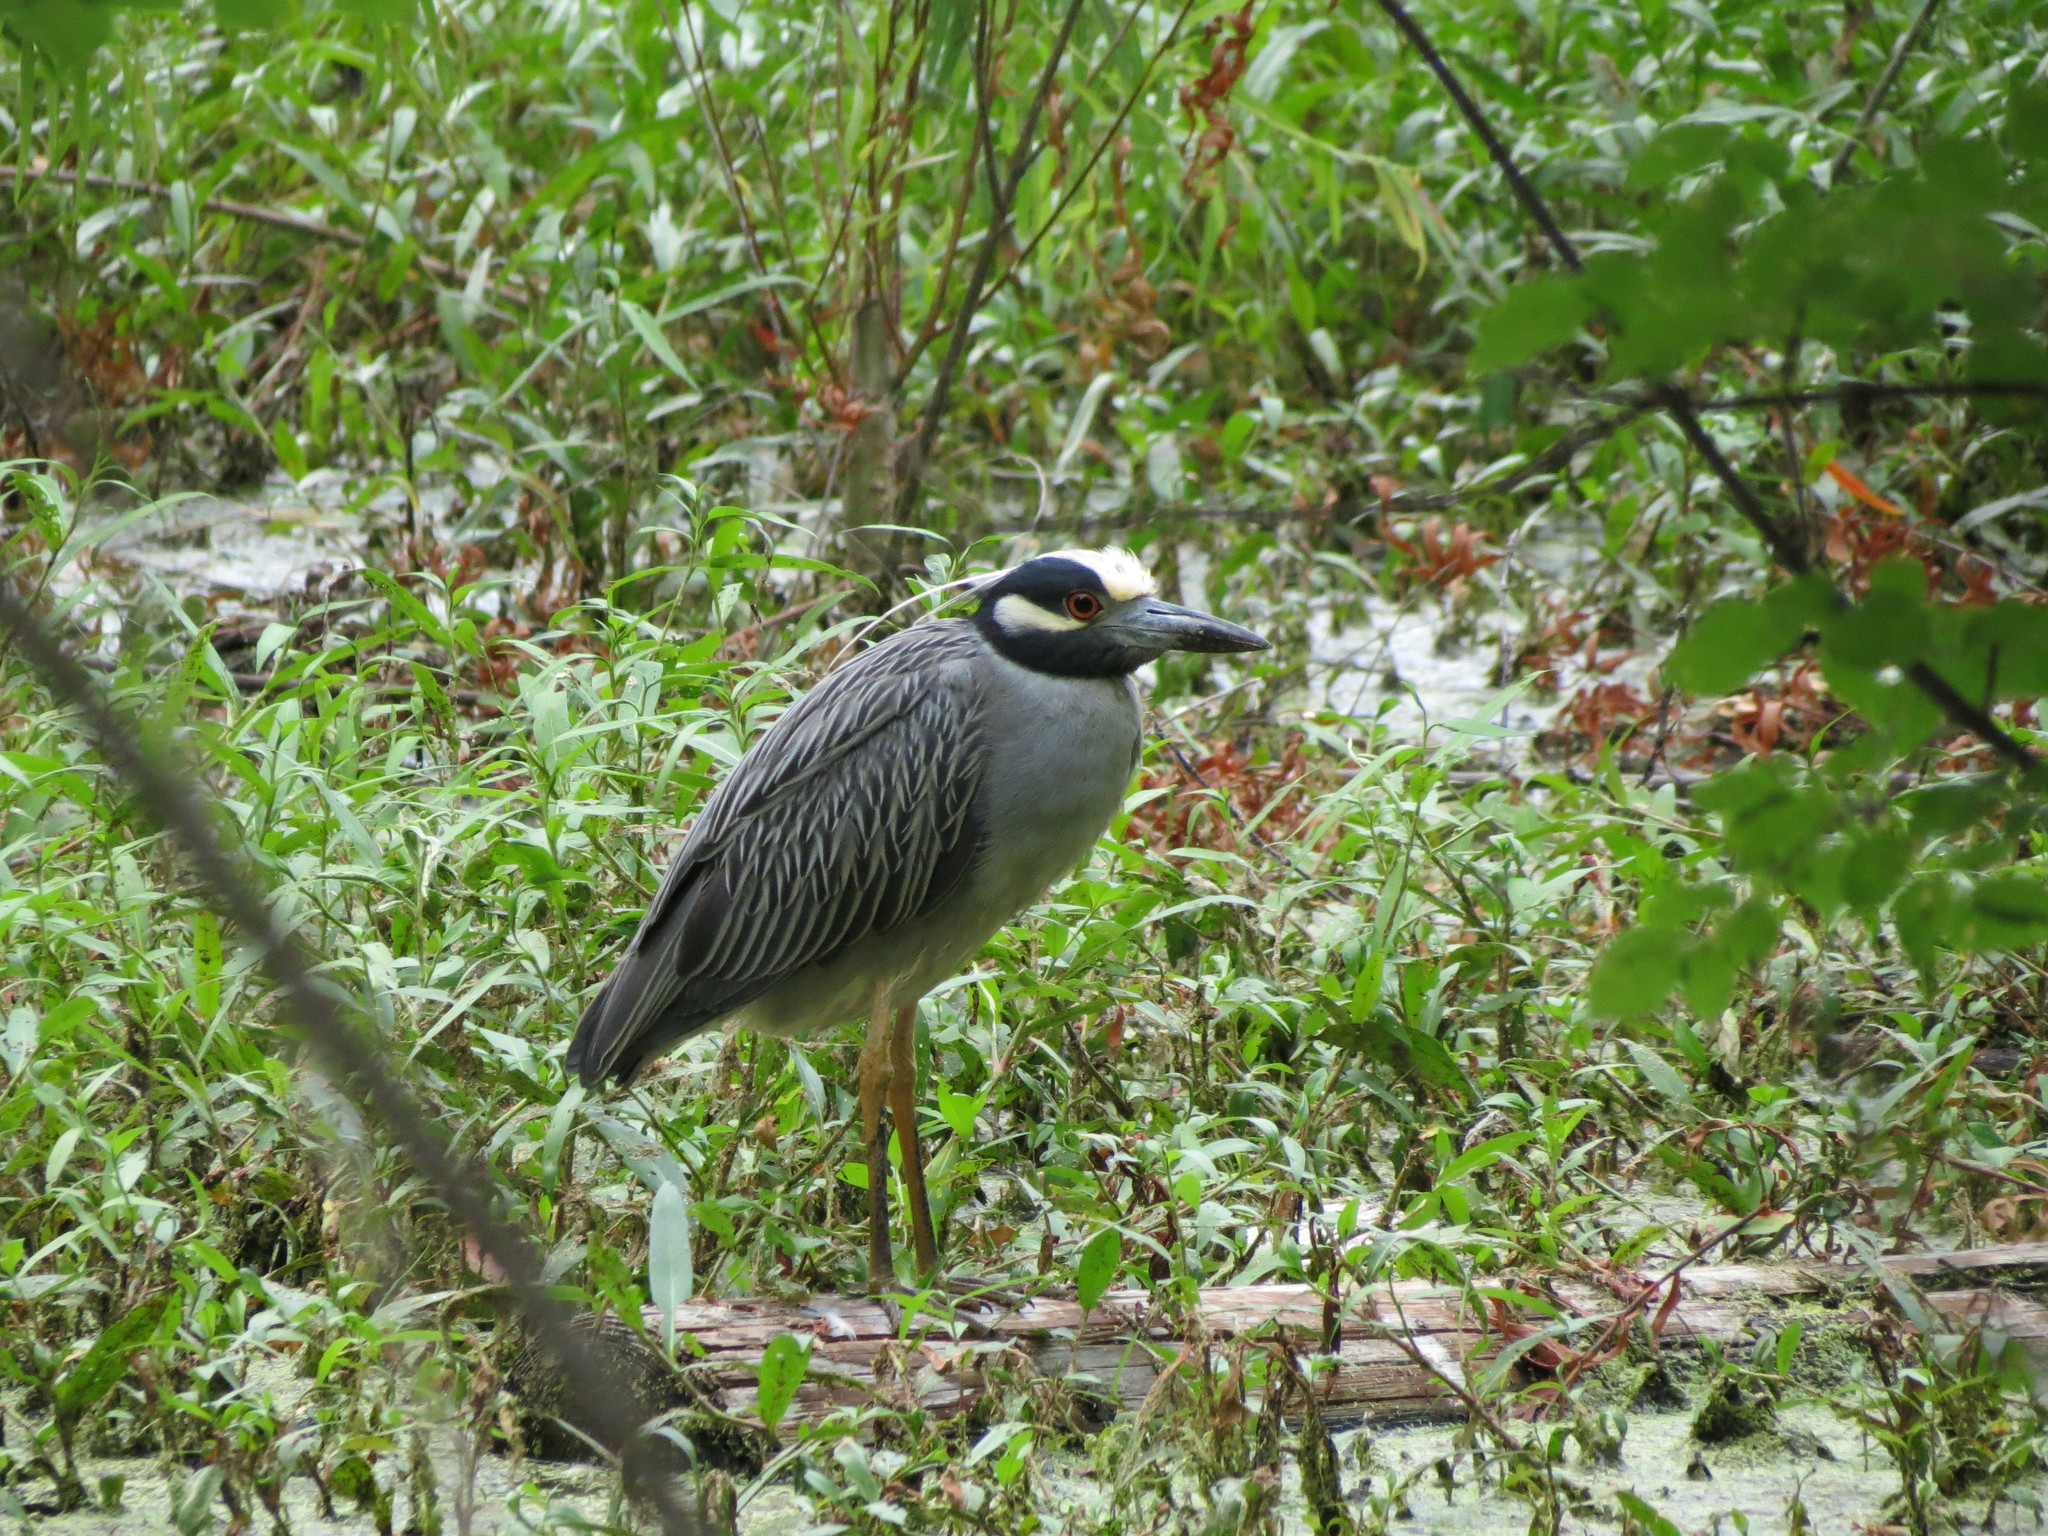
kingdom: Animalia
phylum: Chordata
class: Aves
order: Pelecaniformes
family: Ardeidae
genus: Nyctanassa
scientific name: Nyctanassa violacea
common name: Yellow-crowned night heron
